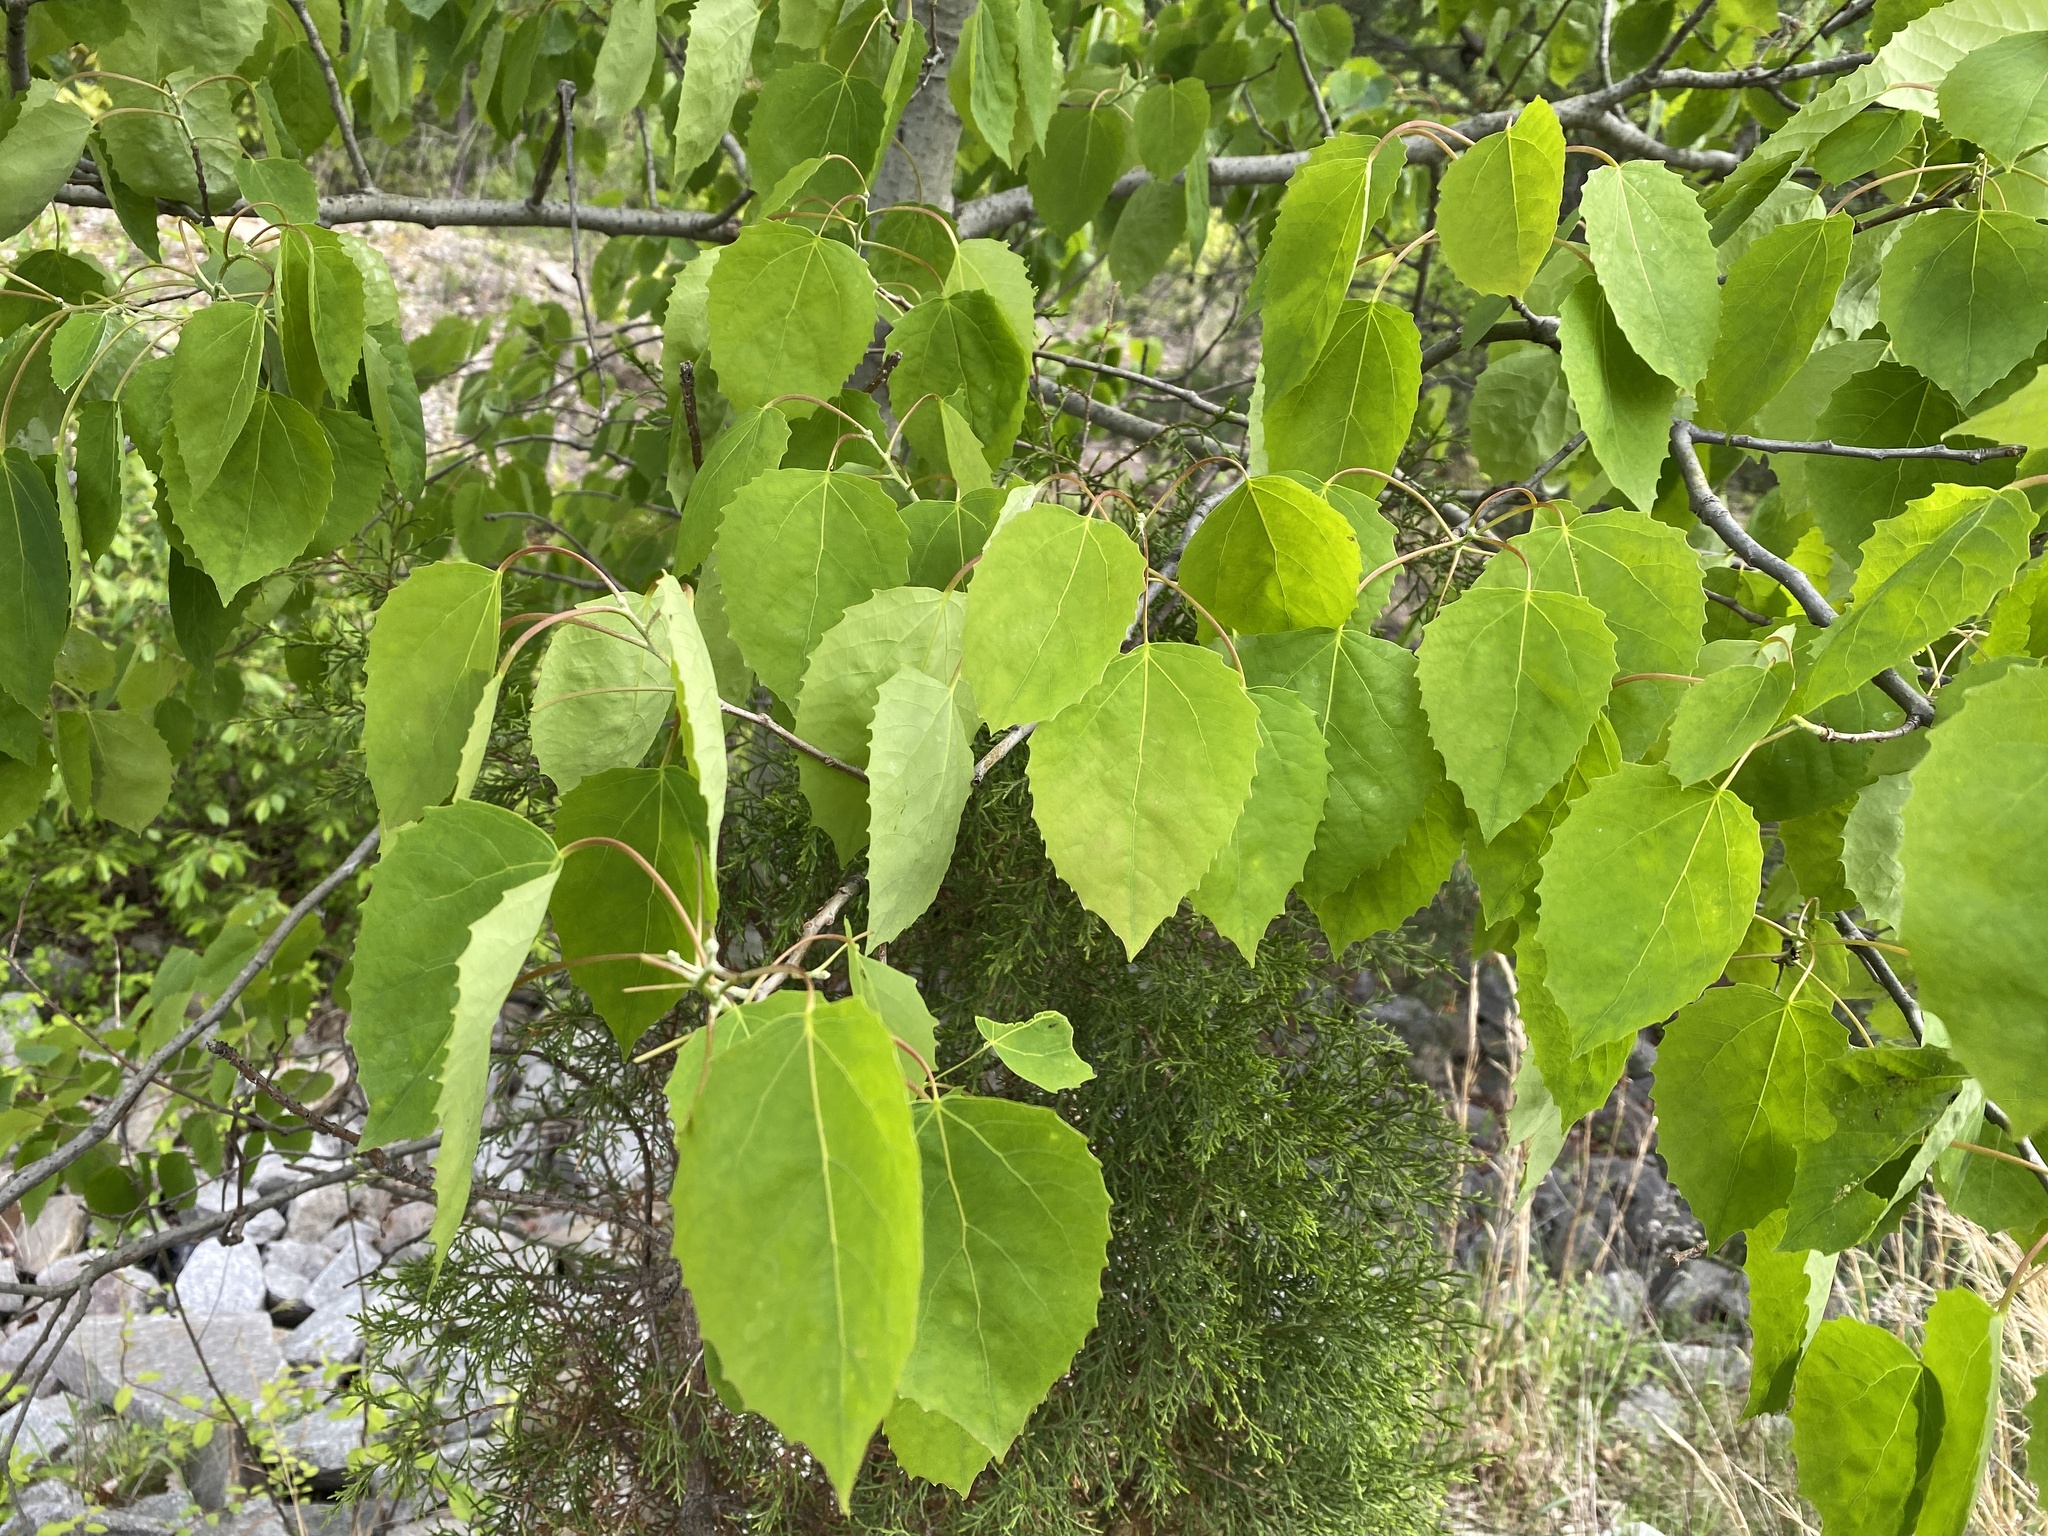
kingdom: Plantae
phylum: Tracheophyta
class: Magnoliopsida
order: Malpighiales
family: Salicaceae
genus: Populus
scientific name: Populus grandidentata
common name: Bigtooth aspen
